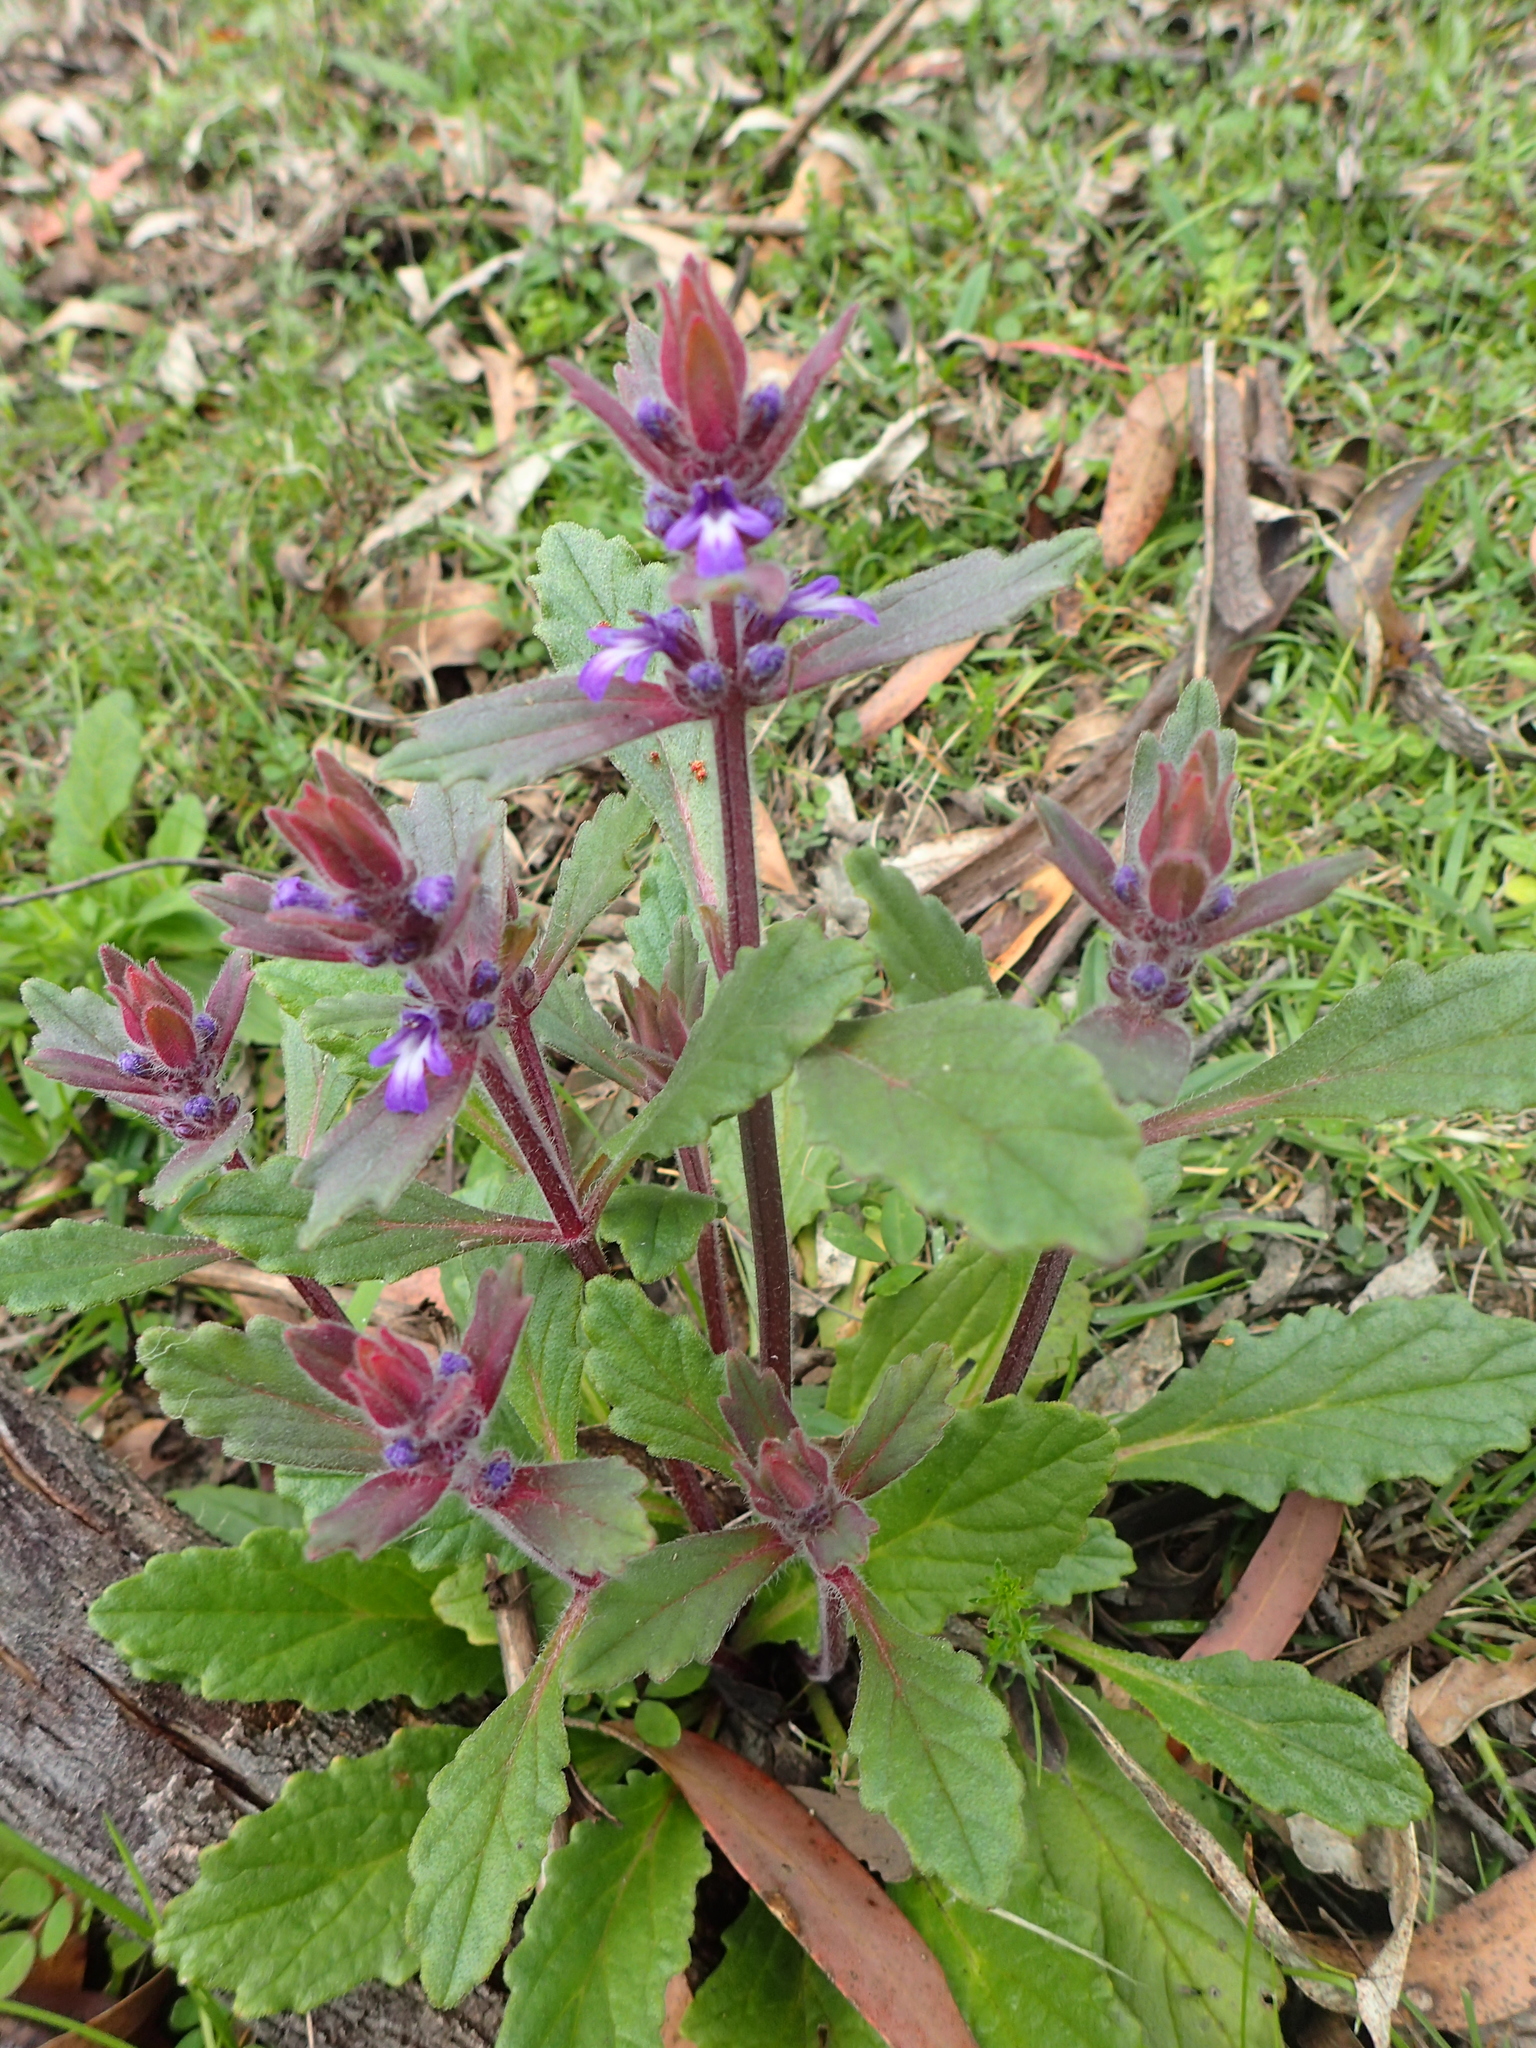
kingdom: Plantae
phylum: Tracheophyta
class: Magnoliopsida
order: Lamiales
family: Lamiaceae
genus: Ajuga
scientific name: Ajuga australis
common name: Australian bugle
